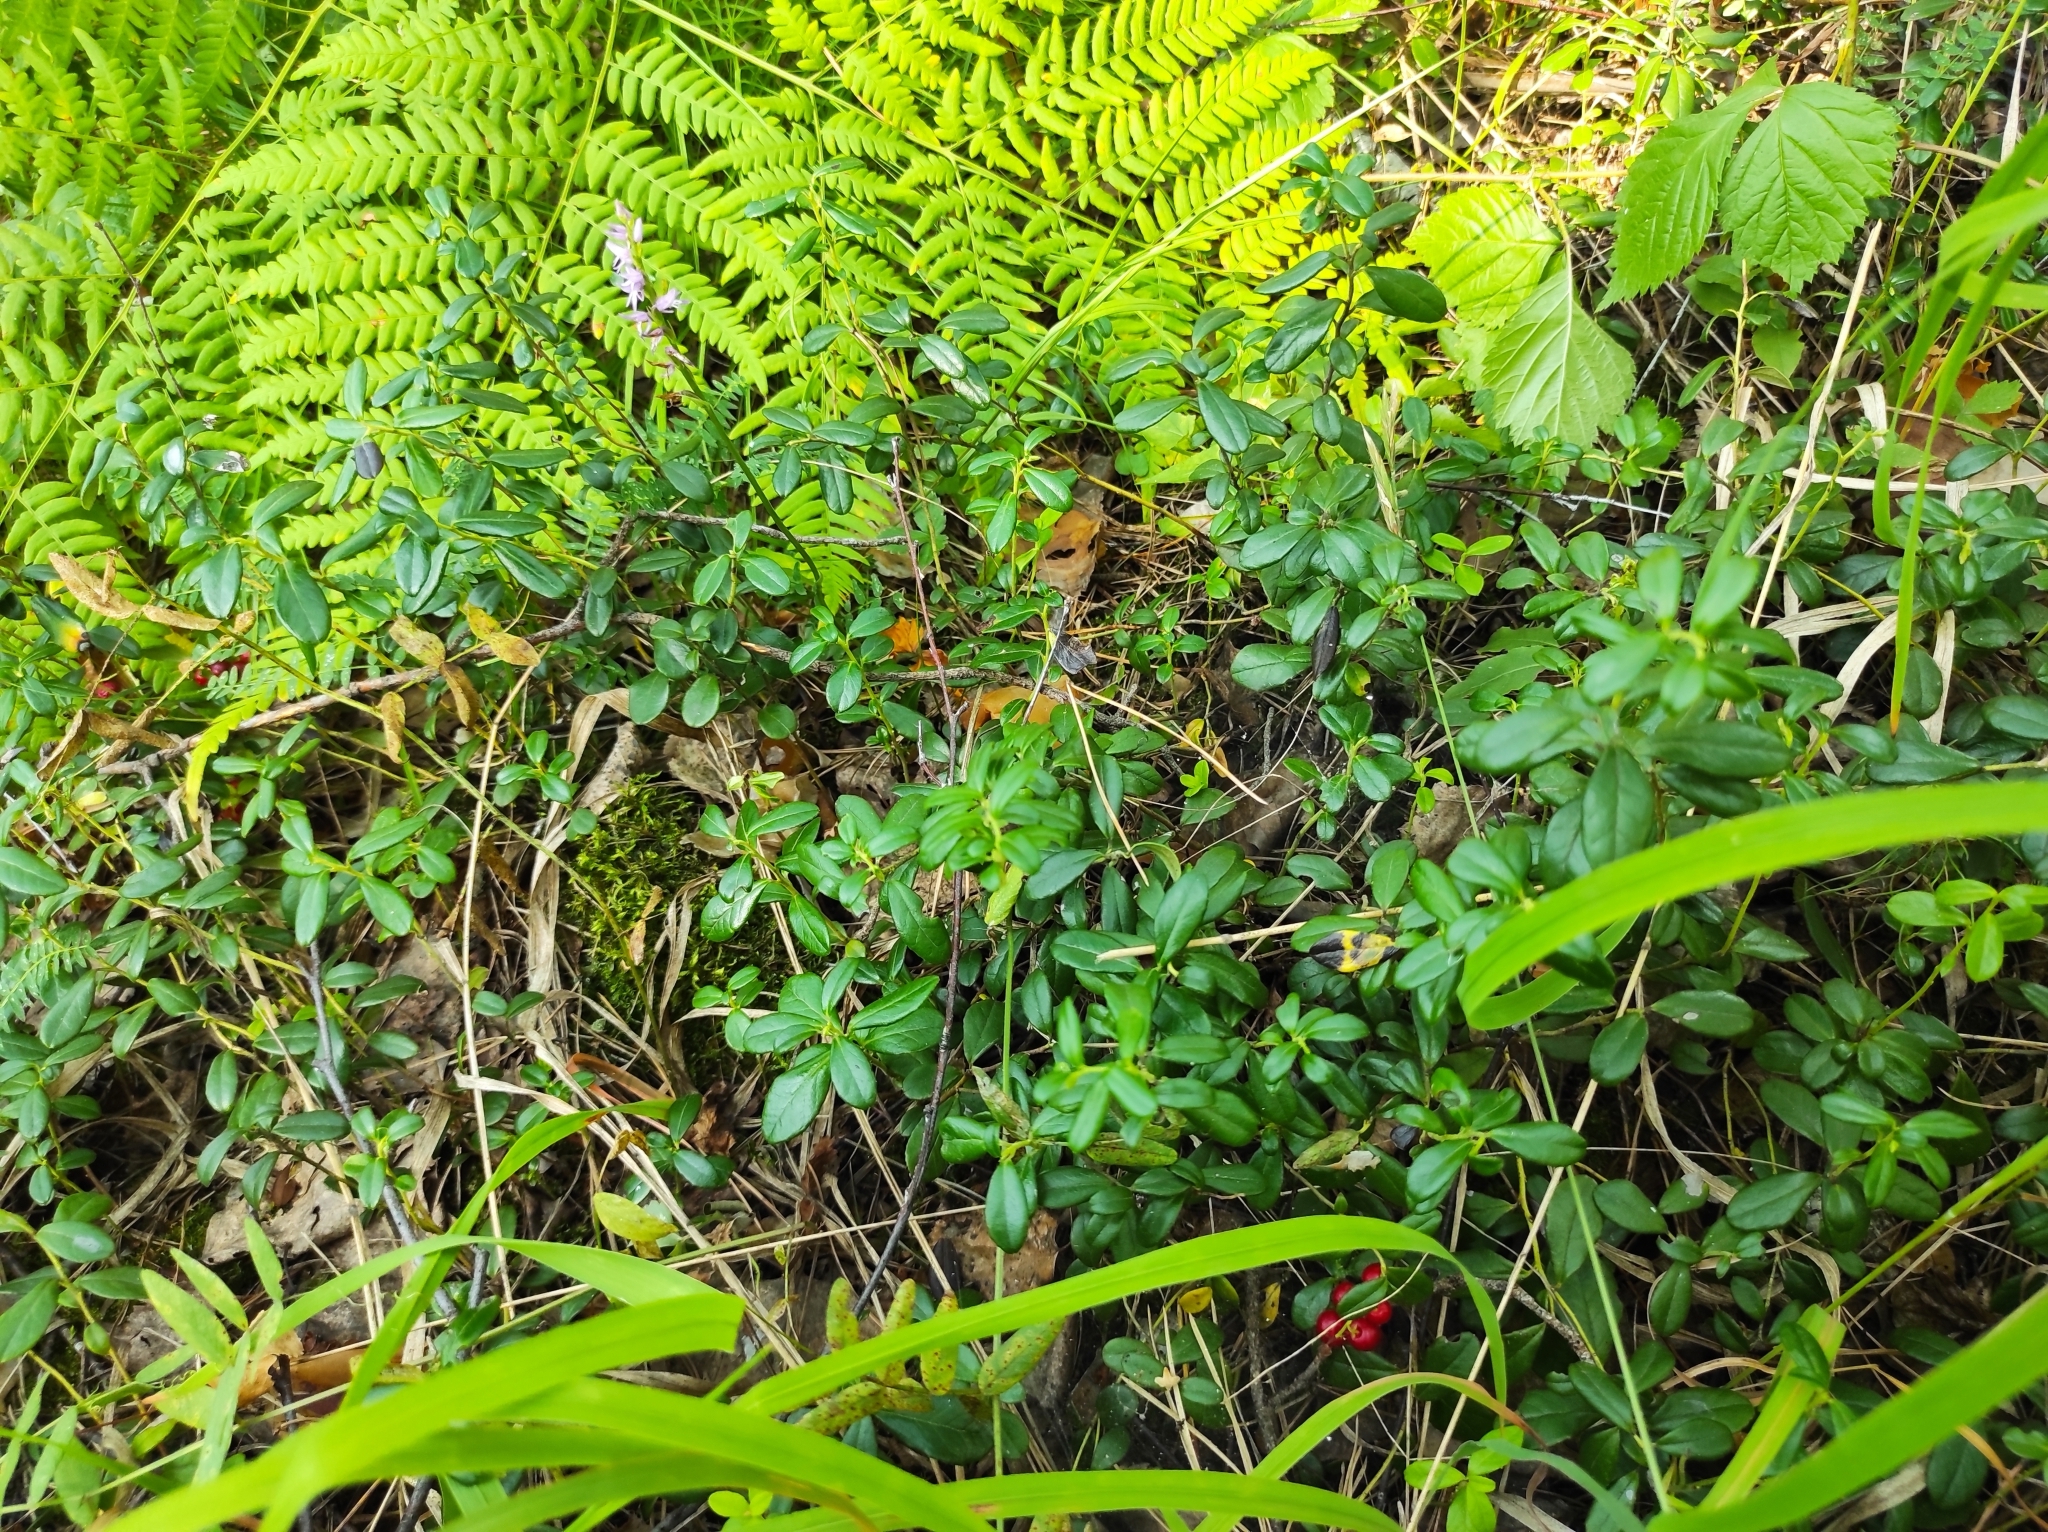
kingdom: Plantae
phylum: Tracheophyta
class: Liliopsida
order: Asparagales
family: Orchidaceae
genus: Hemipilia
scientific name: Hemipilia cucullata
